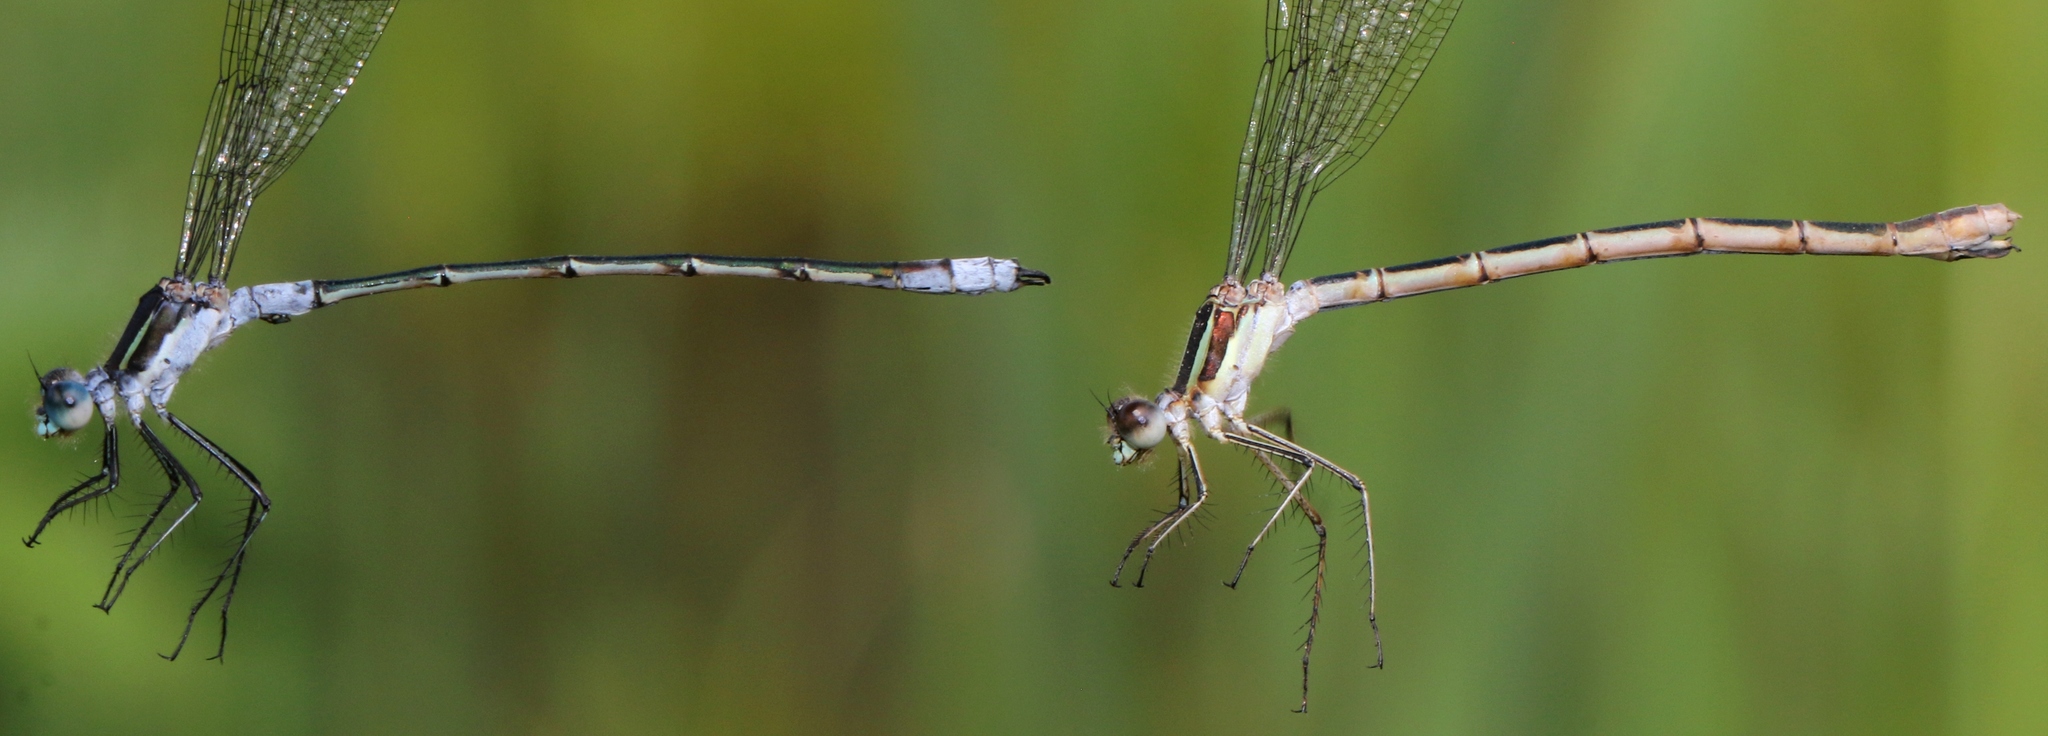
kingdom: Animalia
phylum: Arthropoda
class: Insecta
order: Odonata
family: Lestidae
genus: Lestes
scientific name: Lestes disjunctus
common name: Northern spreadwing
